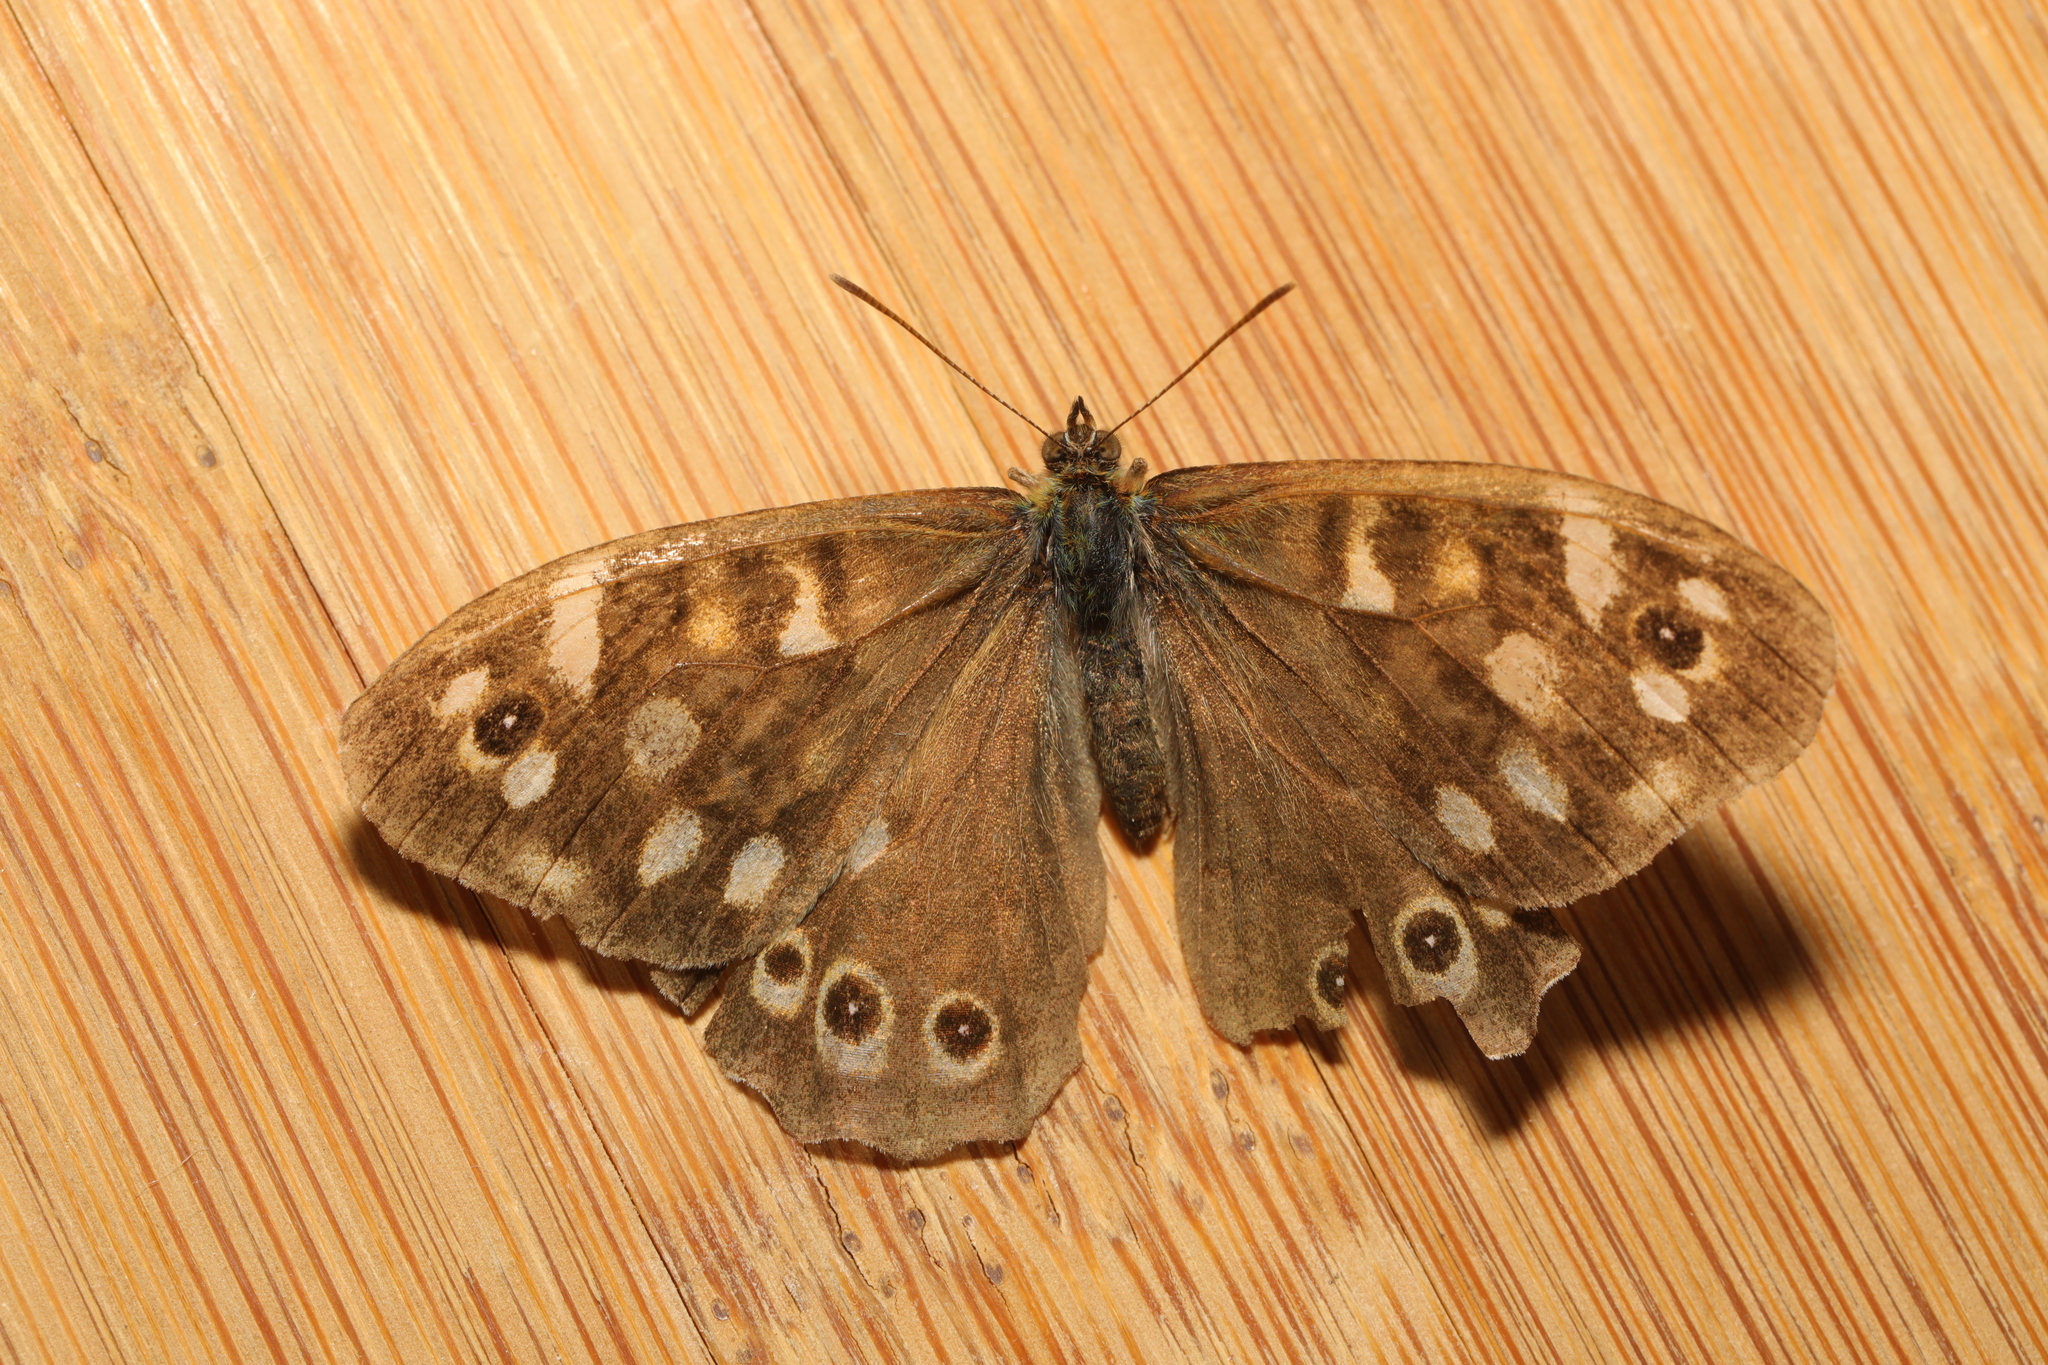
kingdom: Animalia
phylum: Arthropoda
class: Insecta
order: Lepidoptera
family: Nymphalidae
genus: Pararge
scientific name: Pararge aegeria
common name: Speckled wood
